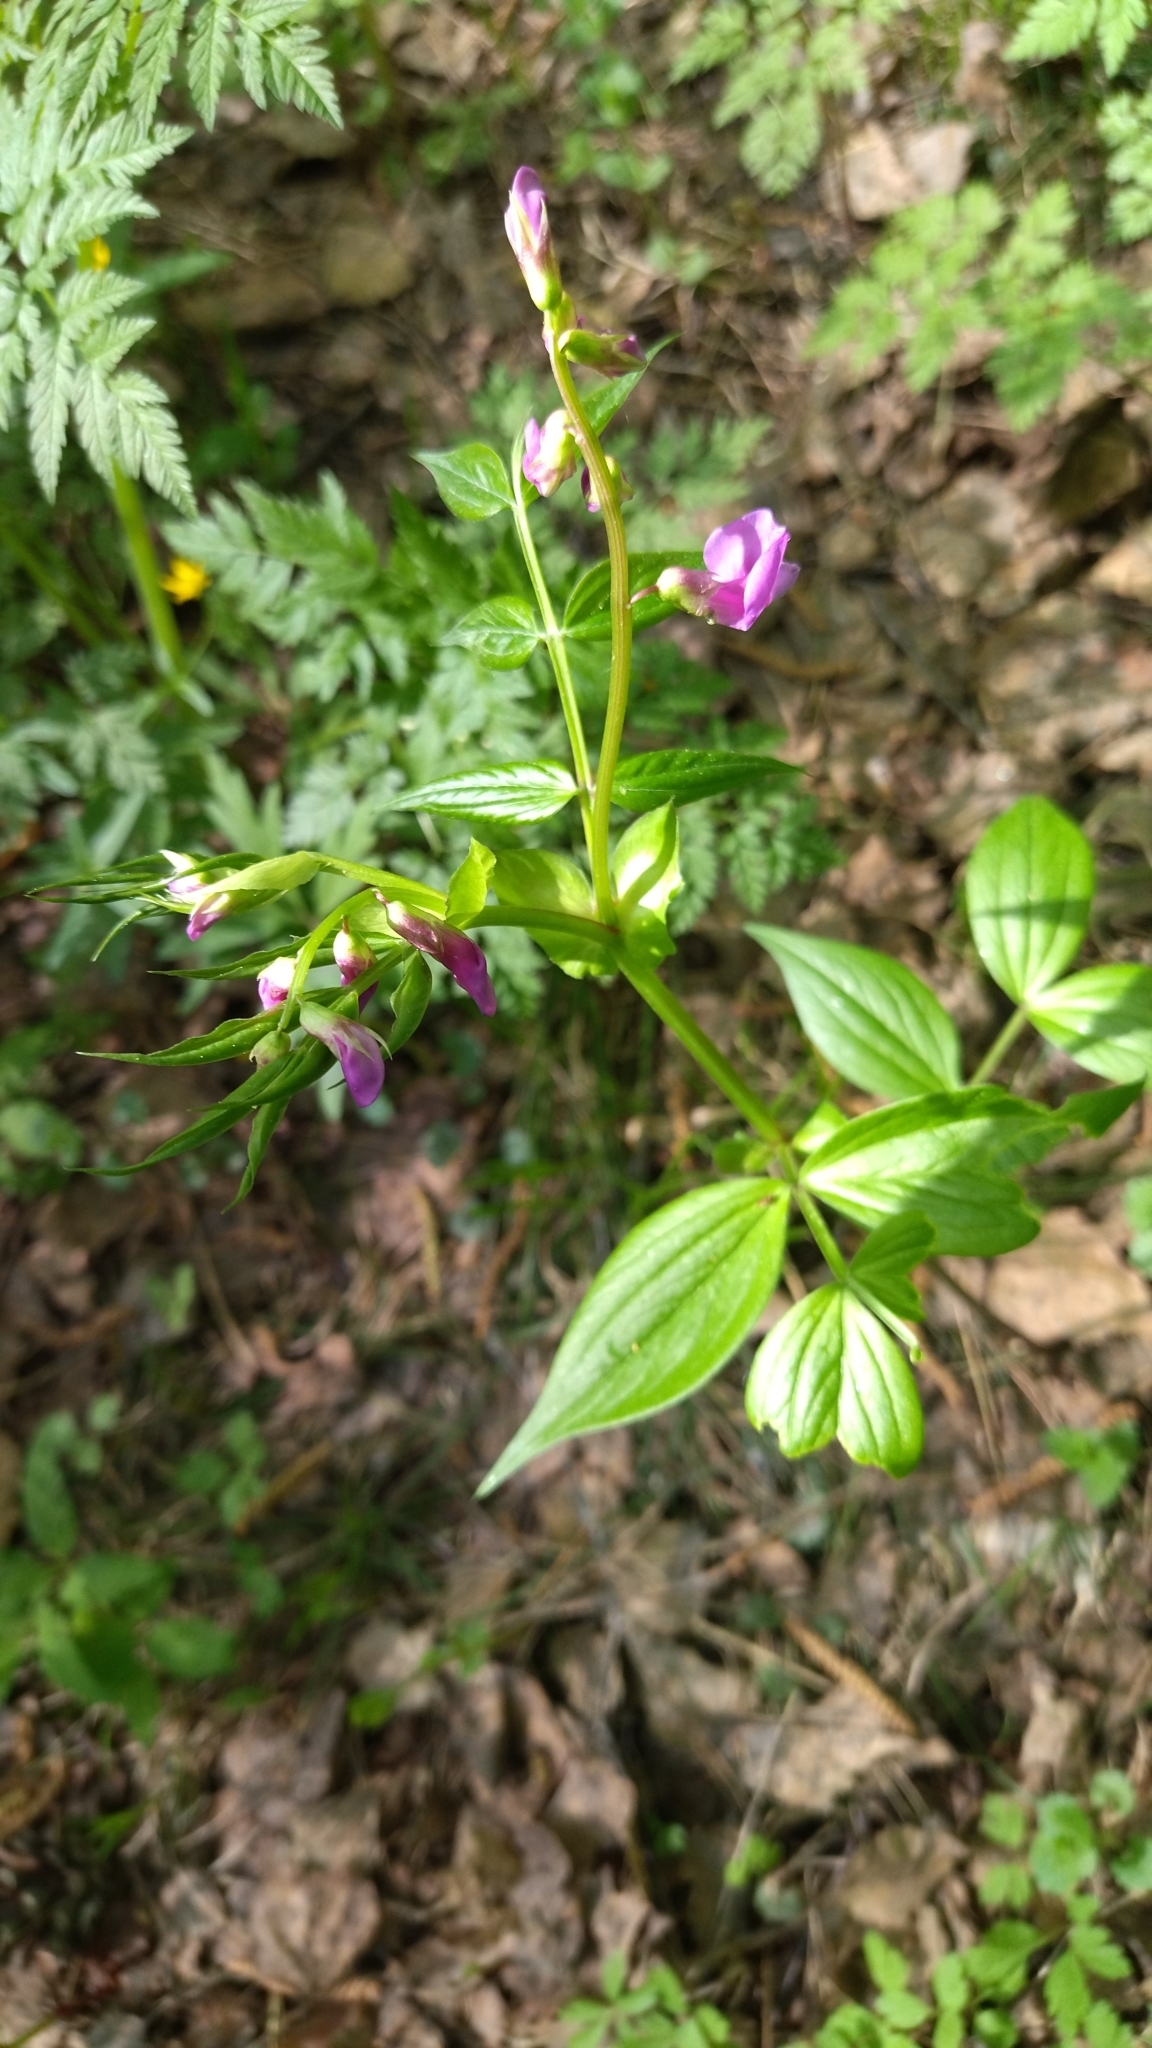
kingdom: Plantae
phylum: Tracheophyta
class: Magnoliopsida
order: Fabales
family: Fabaceae
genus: Lathyrus
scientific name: Lathyrus vernus
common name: Spring pea
